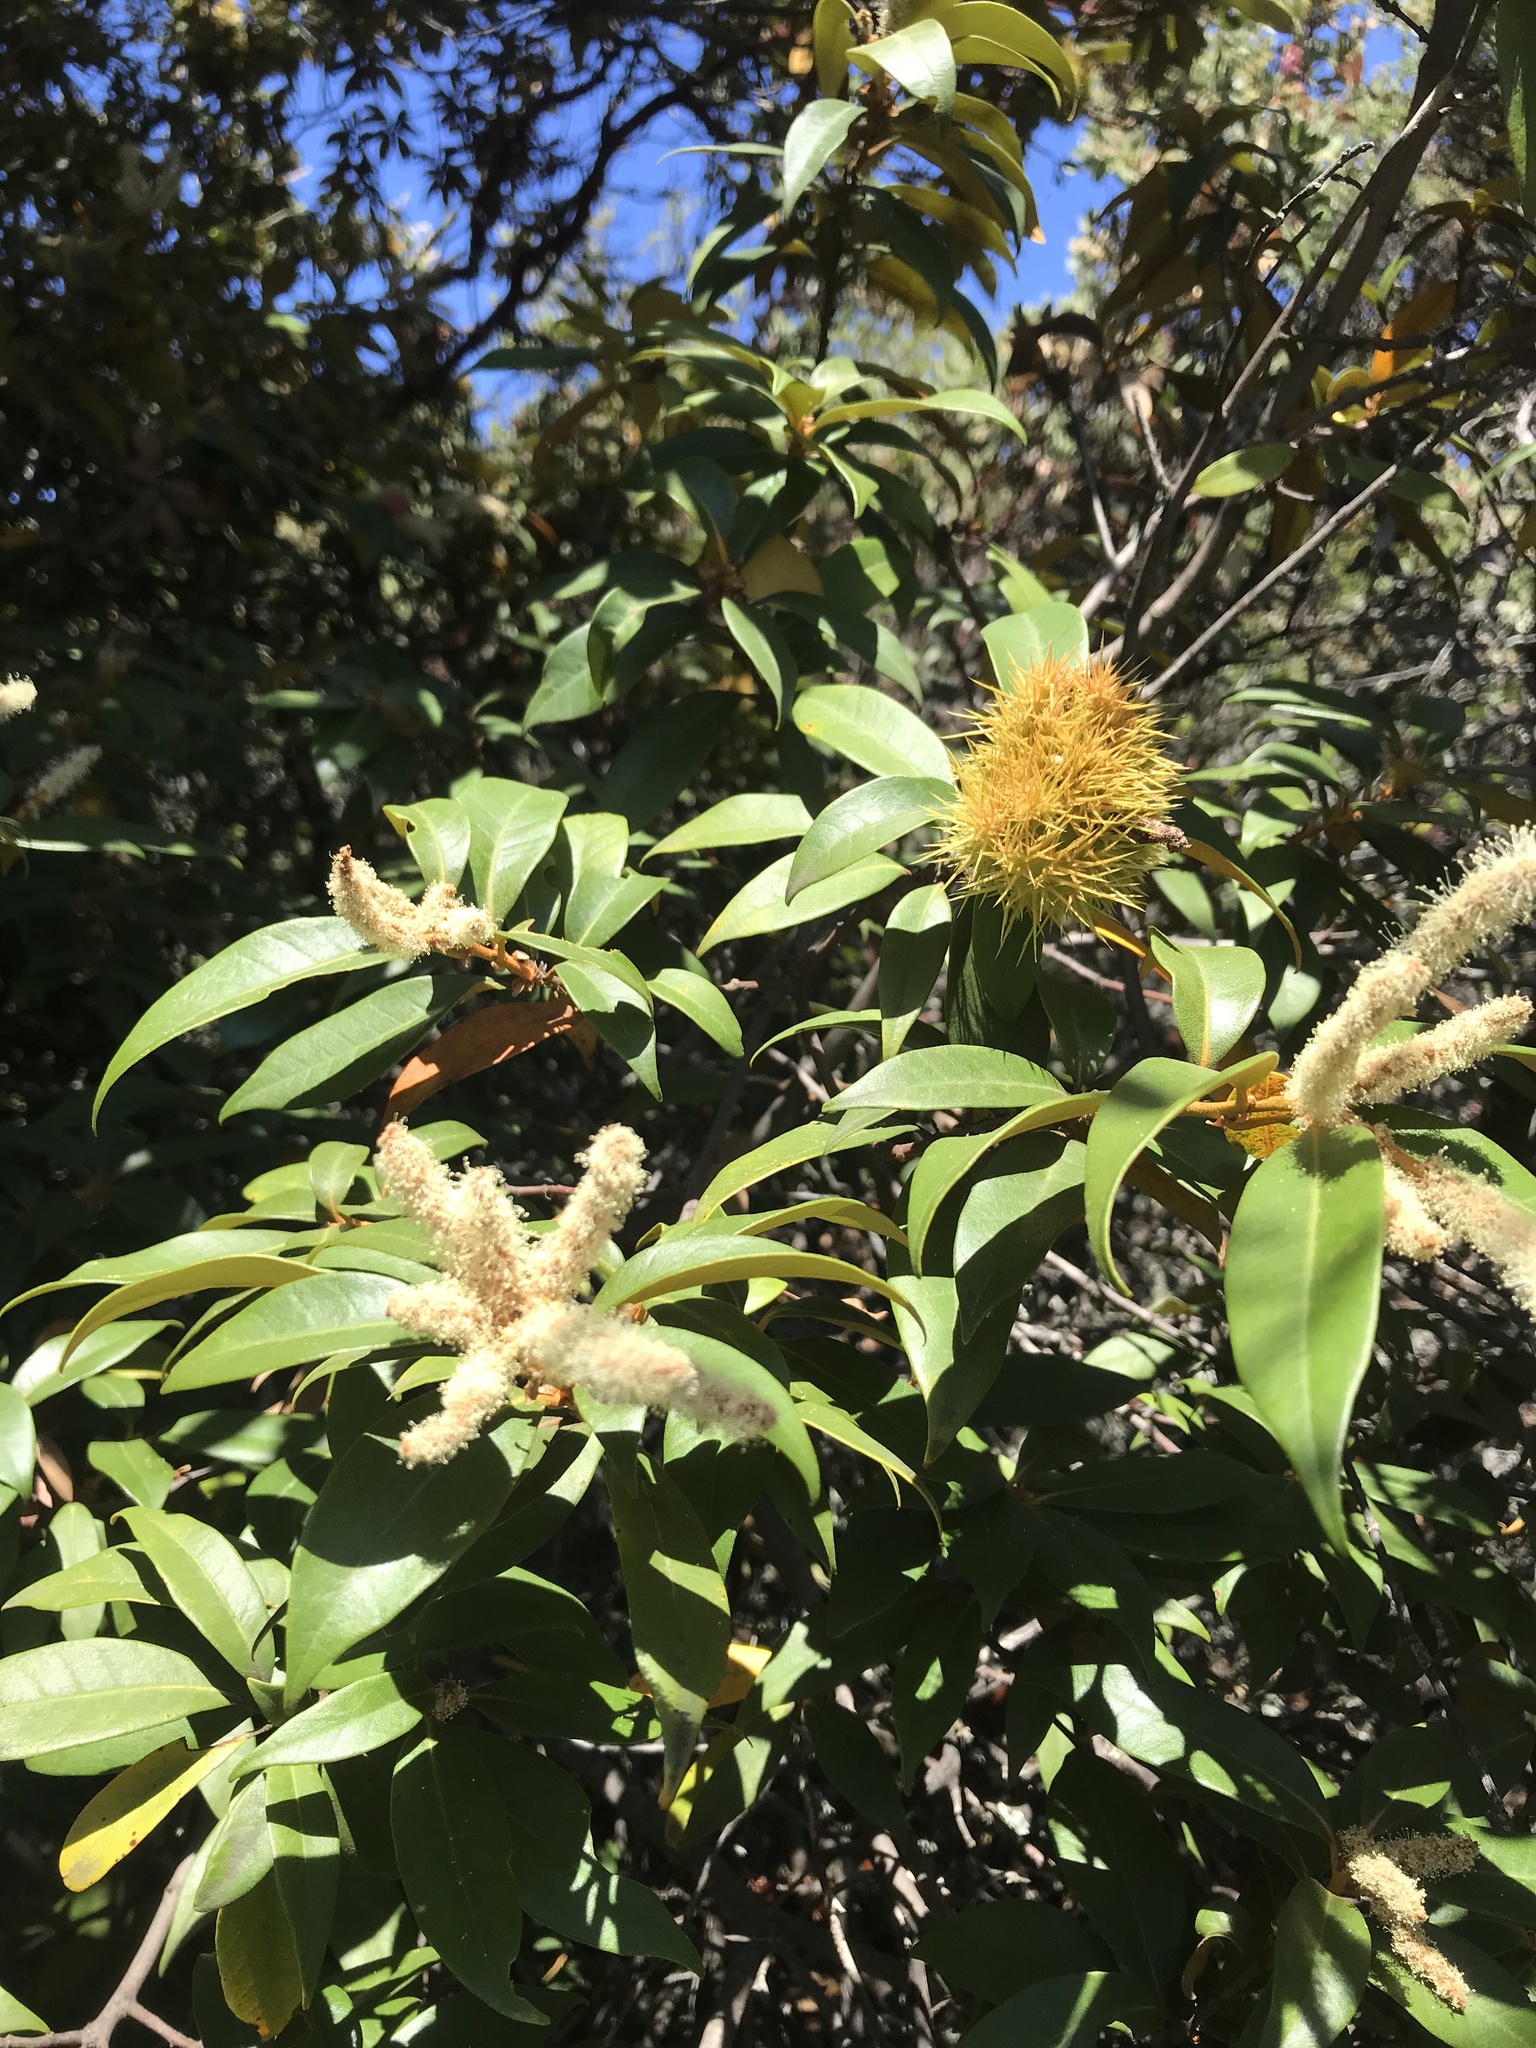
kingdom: Plantae
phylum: Tracheophyta
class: Magnoliopsida
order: Fagales
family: Fagaceae
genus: Chrysolepis
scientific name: Chrysolepis chrysophylla
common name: Giant chinquapin
